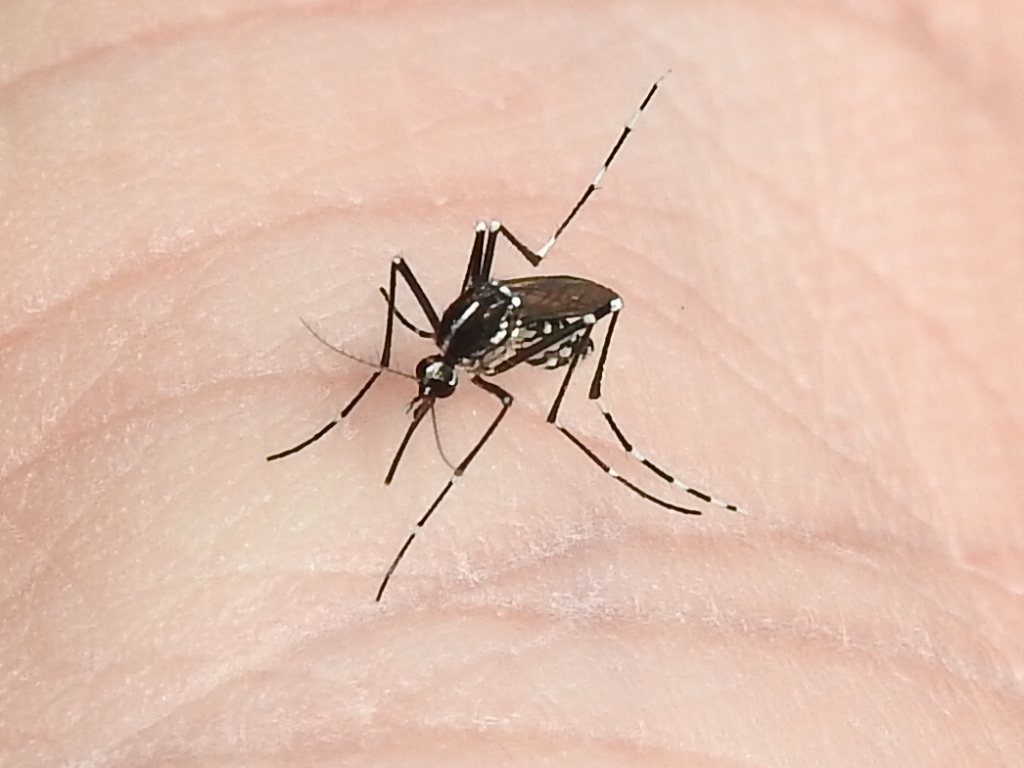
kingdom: Animalia
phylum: Arthropoda
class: Insecta
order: Diptera
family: Culicidae
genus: Aedes
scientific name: Aedes albopictus
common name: Tiger mosquito
